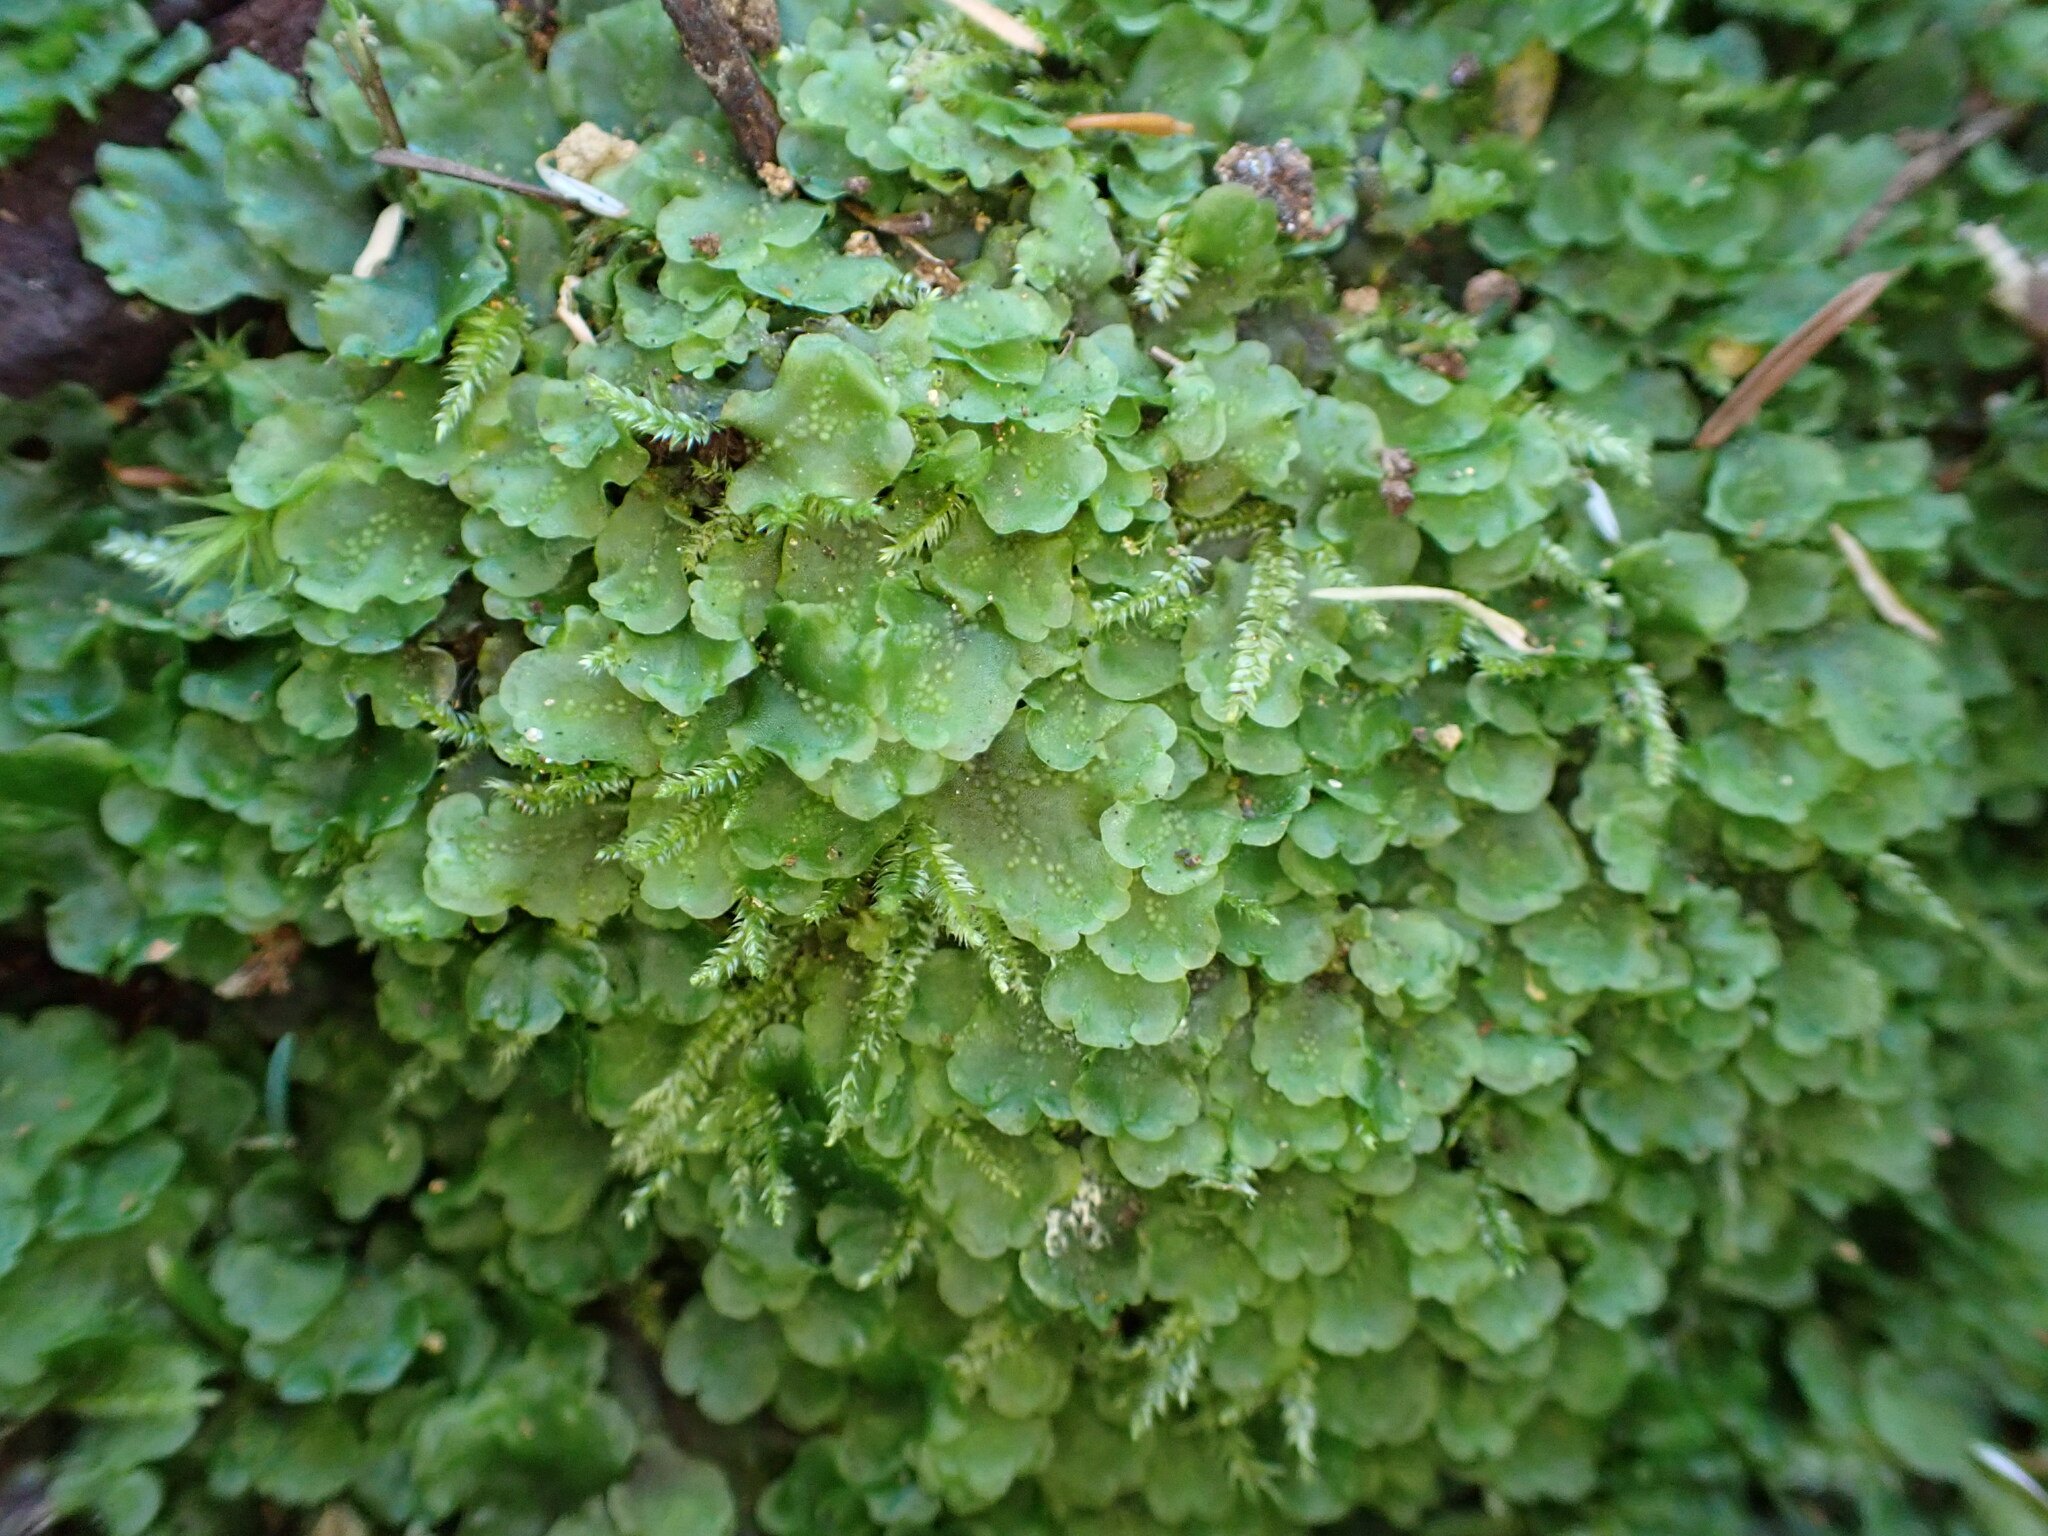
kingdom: Plantae
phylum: Marchantiophyta
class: Jungermanniopsida
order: Pelliales
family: Pelliaceae
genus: Pellia
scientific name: Pellia neesiana
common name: Nees  pellia
